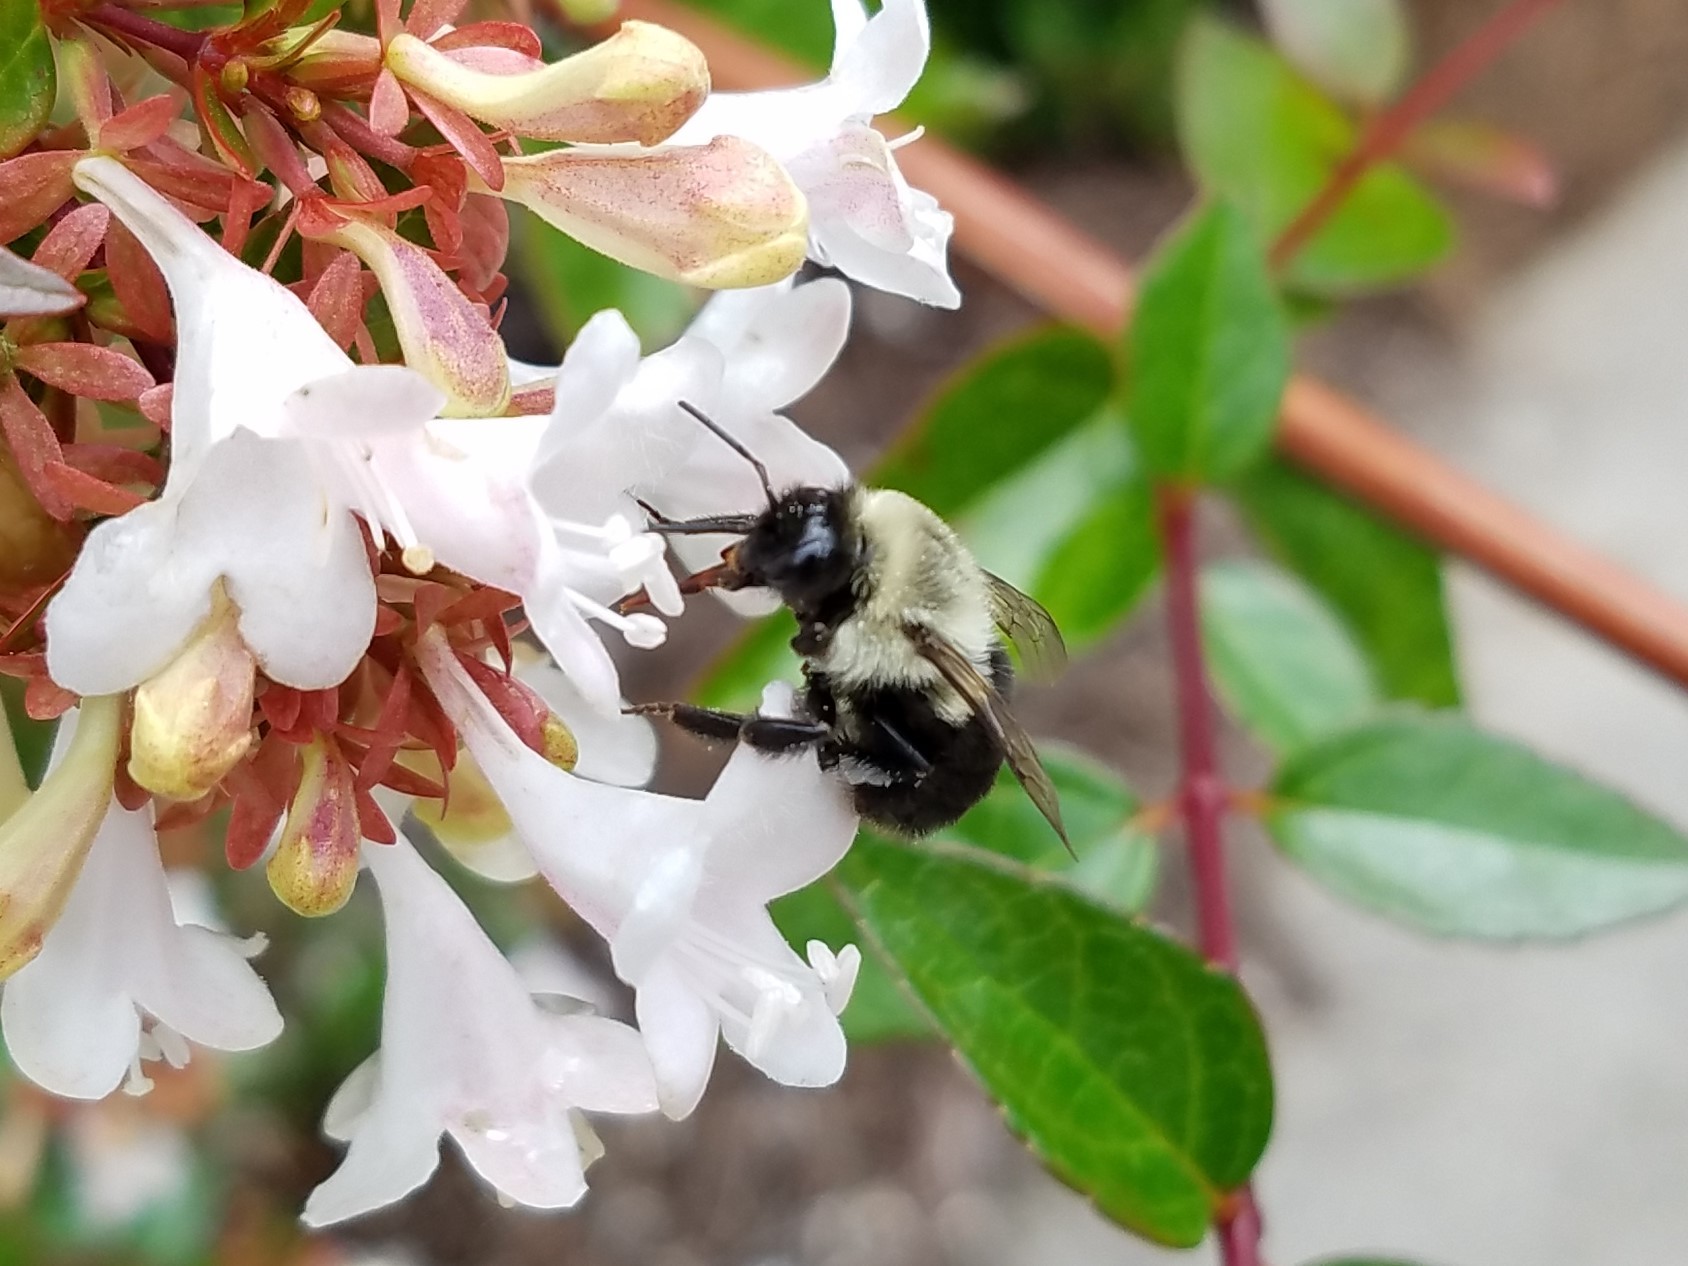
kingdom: Animalia
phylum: Arthropoda
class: Insecta
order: Hymenoptera
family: Apidae
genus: Bombus
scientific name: Bombus impatiens
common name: Common eastern bumble bee
